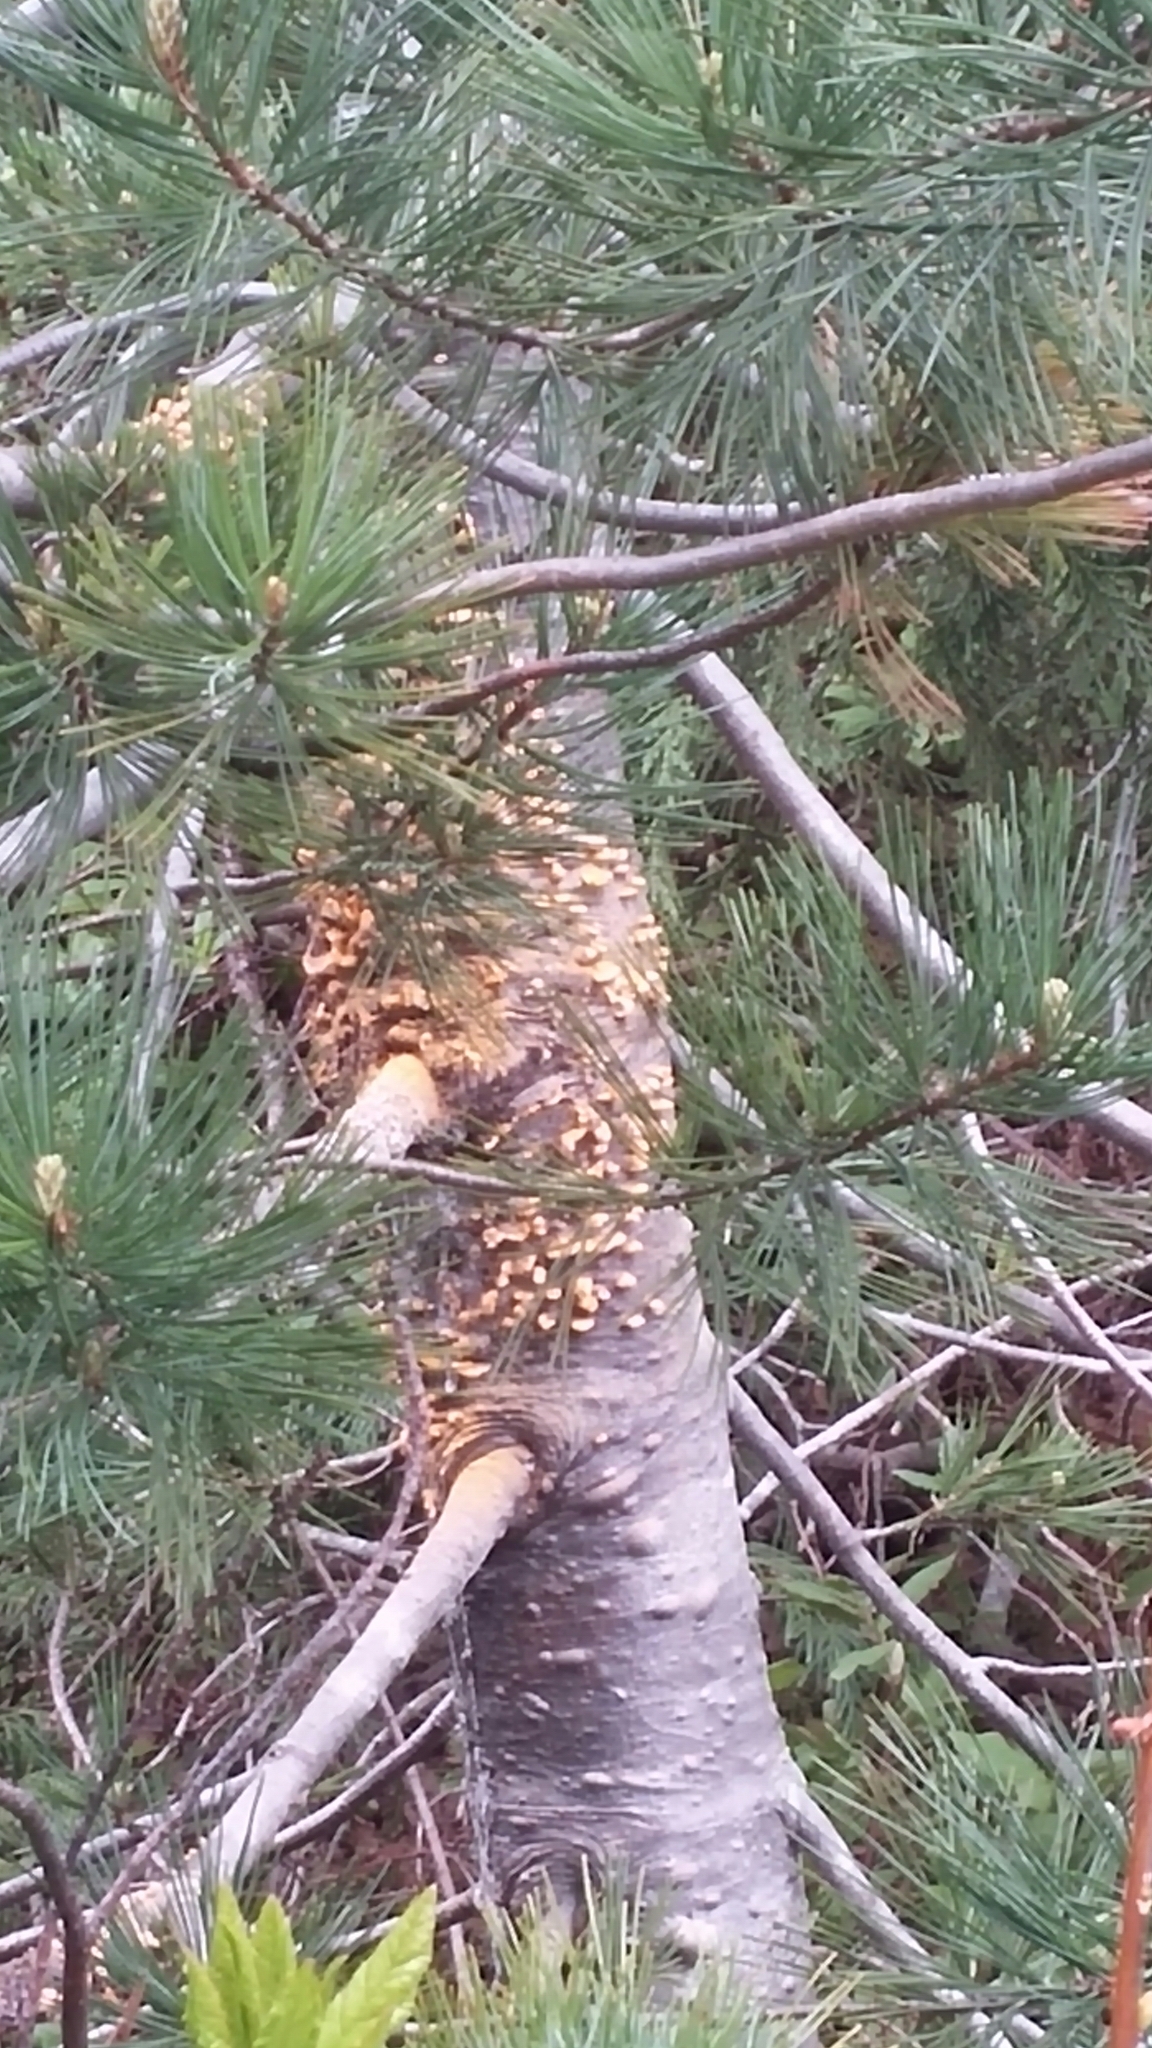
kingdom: Fungi
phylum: Basidiomycota
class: Pucciniomycetes
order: Pucciniales
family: Cronartiaceae
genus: Cronartium
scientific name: Cronartium ribicola
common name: White pine blister rust
